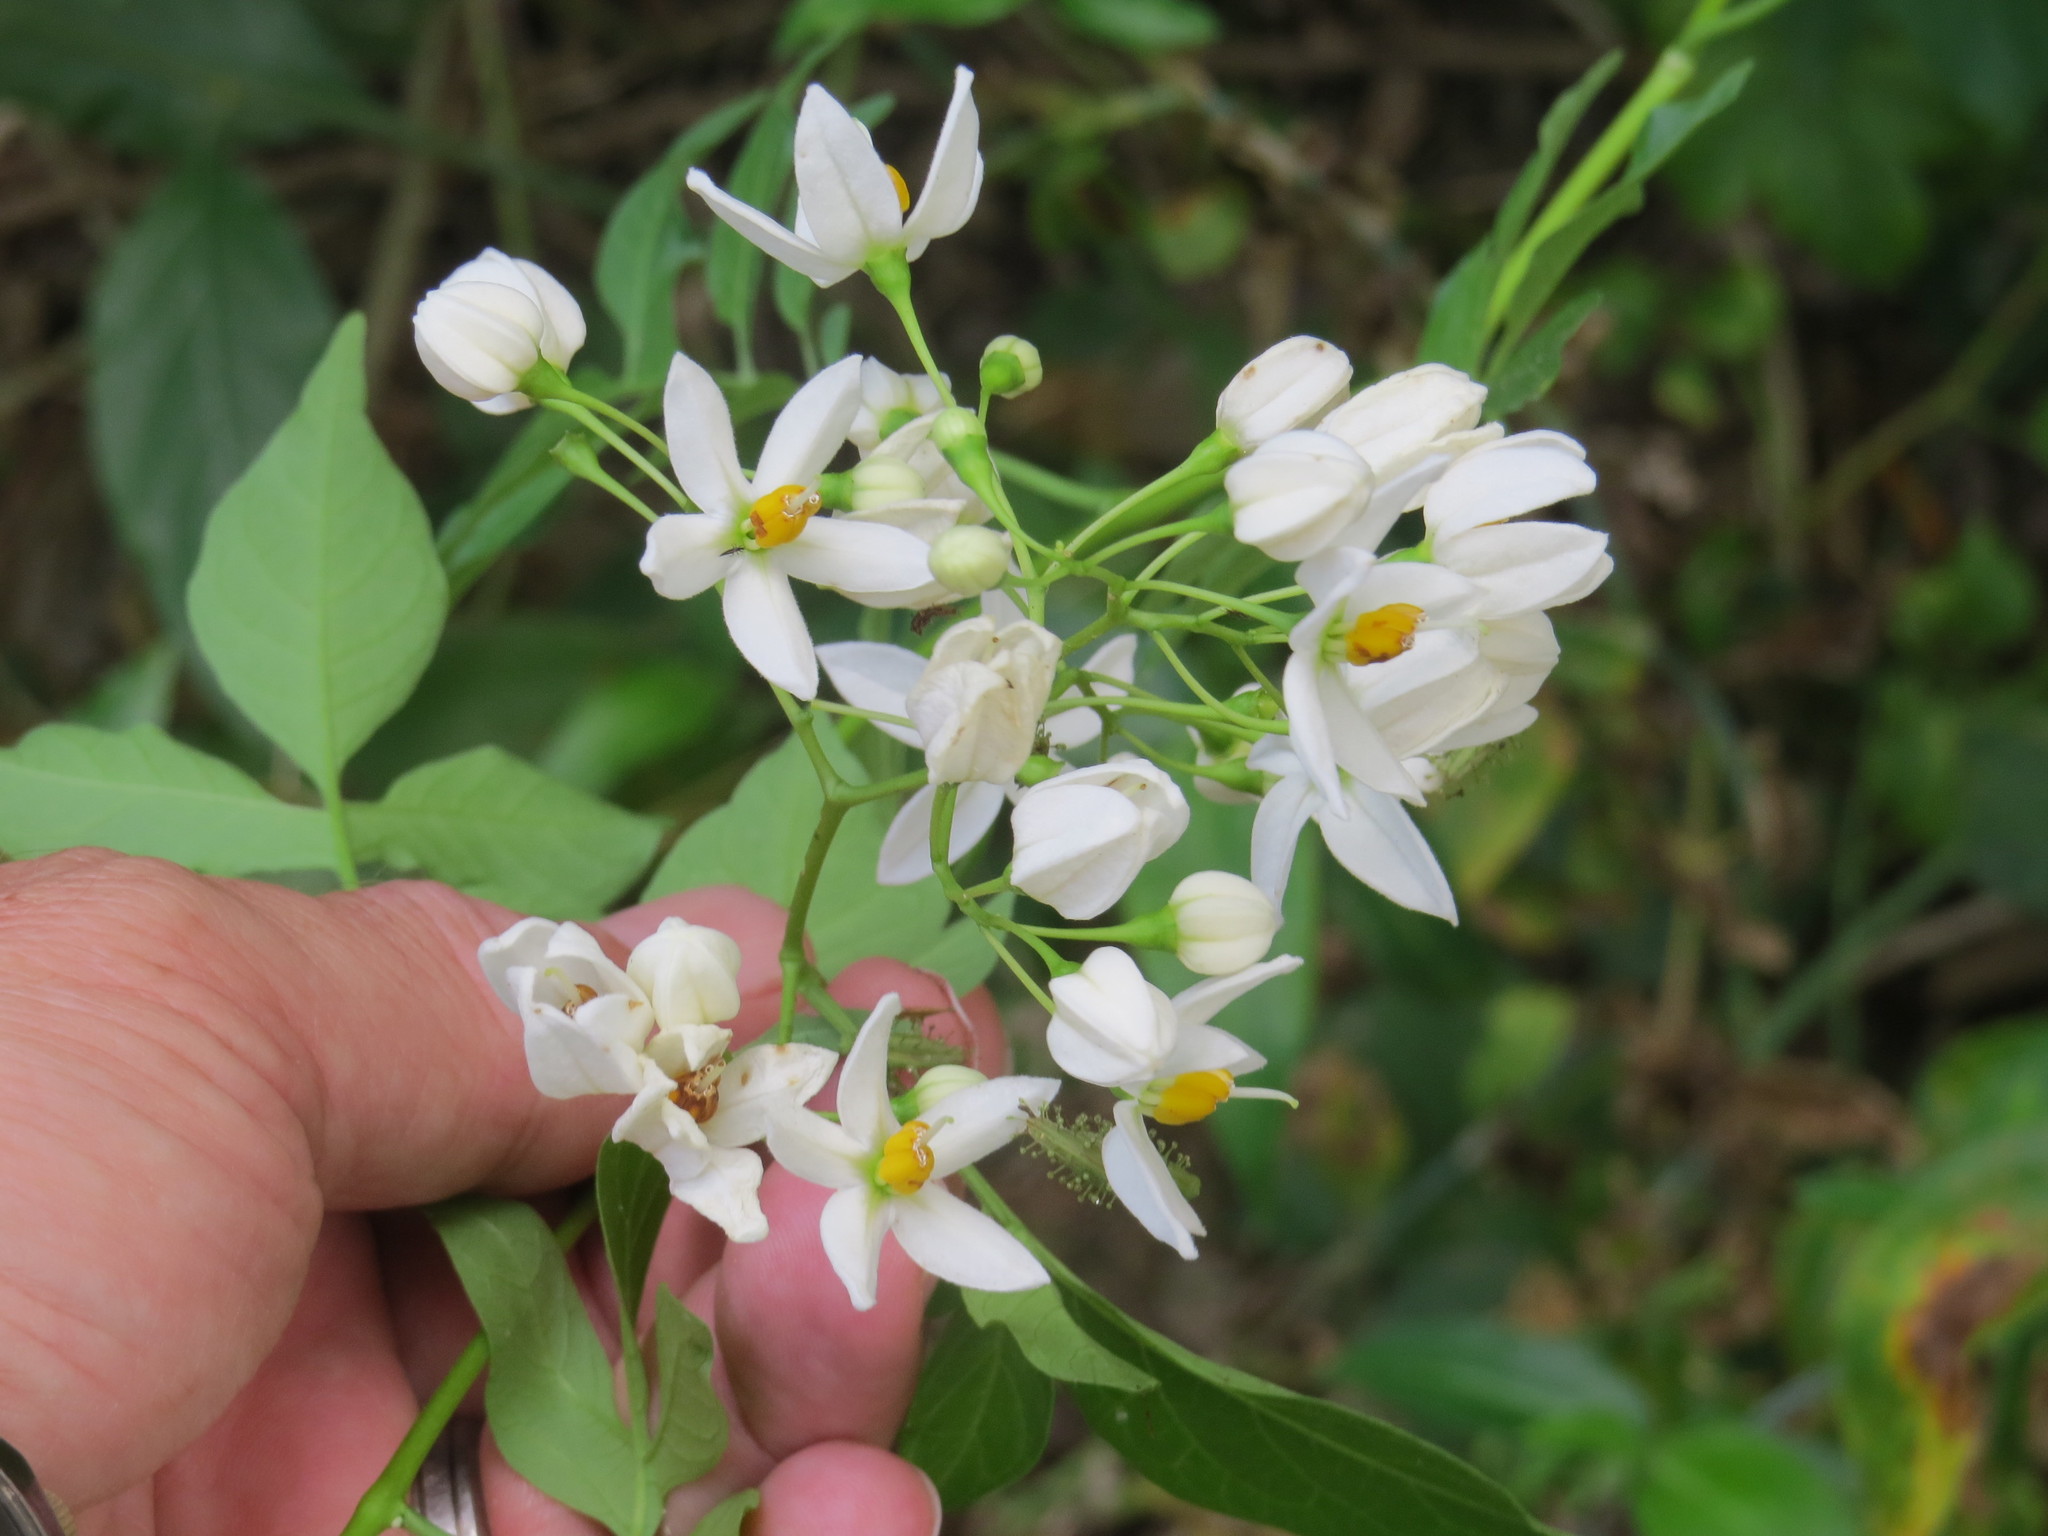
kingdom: Plantae
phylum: Tracheophyta
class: Magnoliopsida
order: Solanales
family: Solanaceae
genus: Solanum
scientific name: Solanum seaforthianum
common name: Brazilian nightshade
